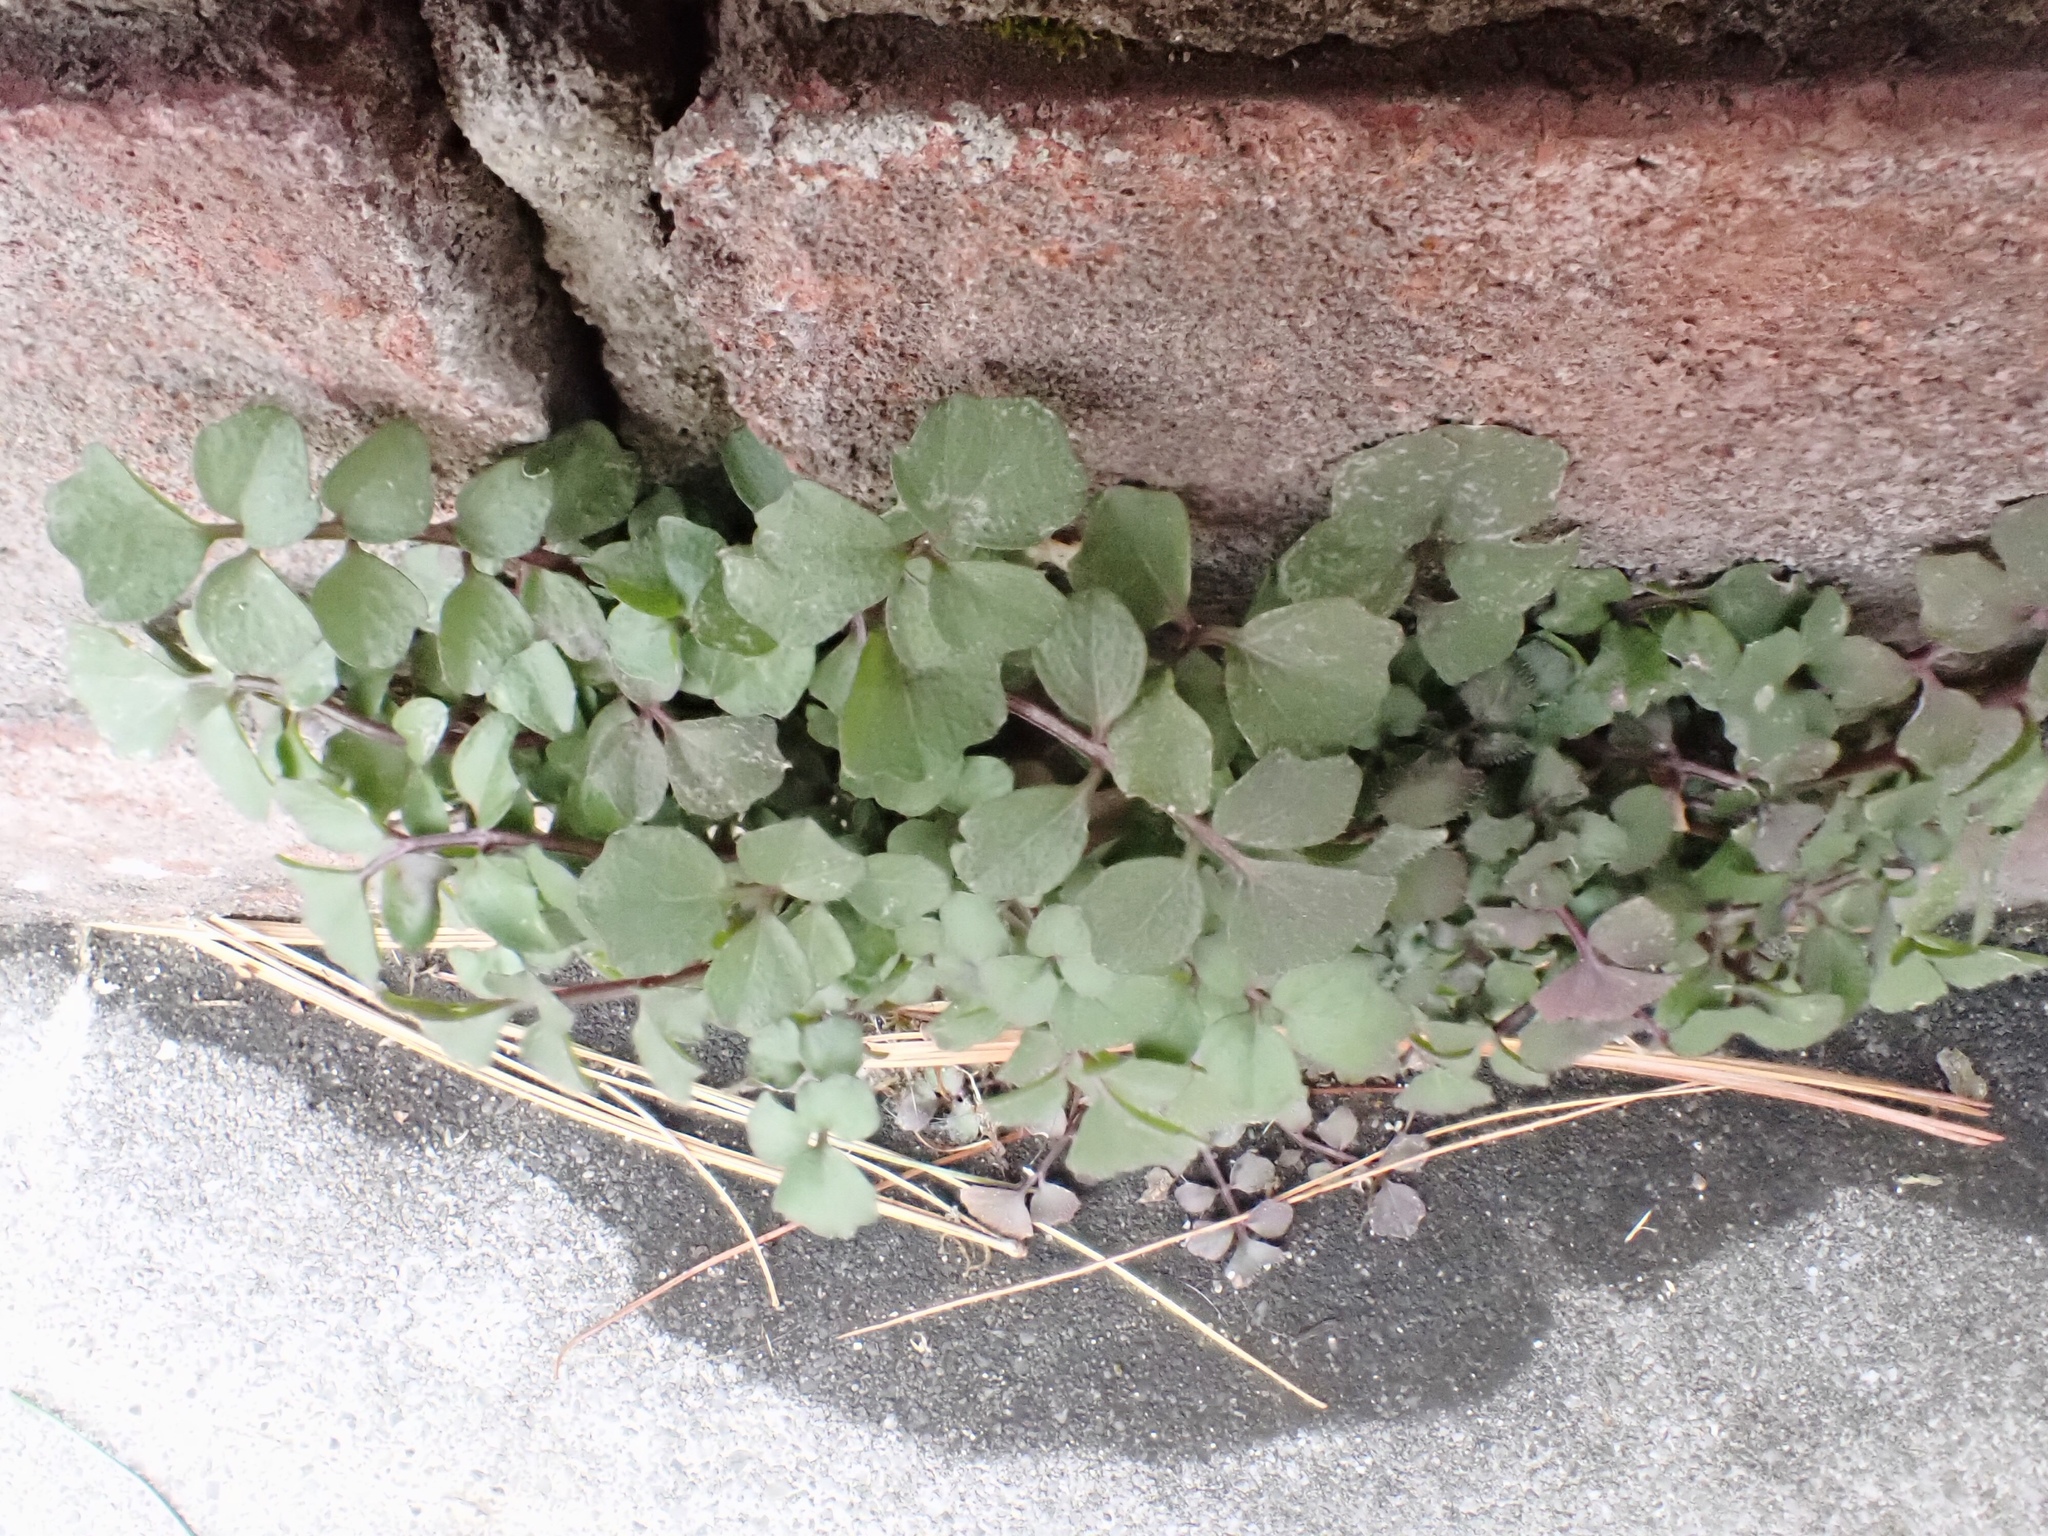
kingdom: Plantae
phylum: Tracheophyta
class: Magnoliopsida
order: Brassicales
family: Brassicaceae
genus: Cardamine
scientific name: Cardamine hirsuta
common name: Hairy bittercress
